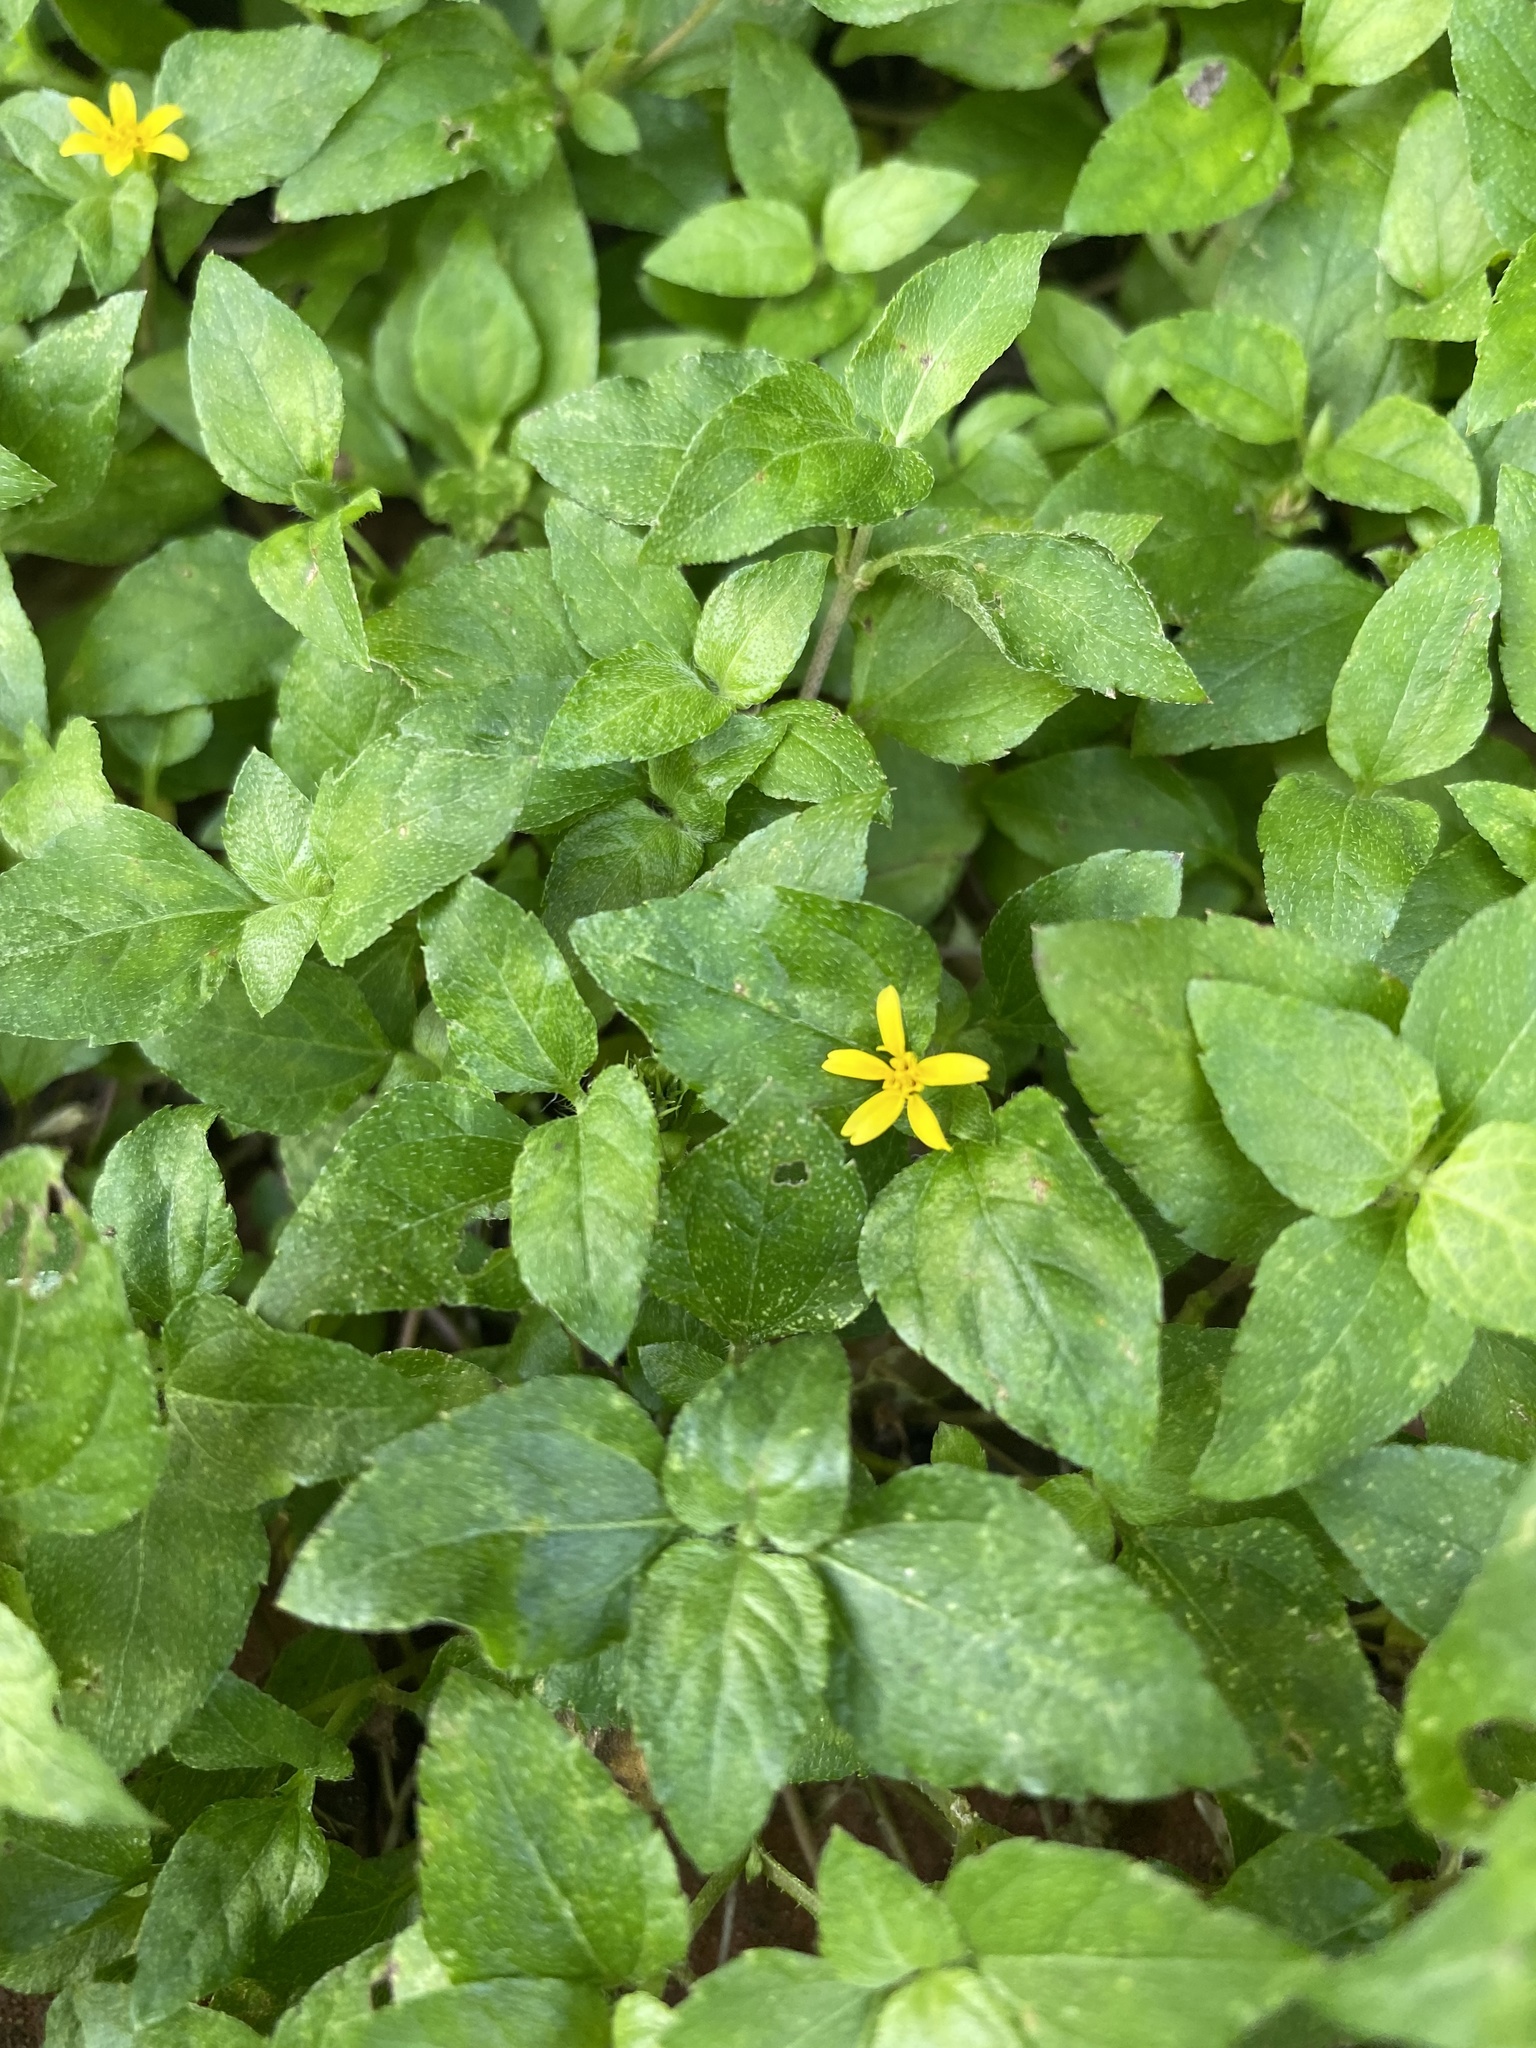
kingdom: Plantae
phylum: Tracheophyta
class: Magnoliopsida
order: Asterales
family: Asteraceae
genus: Calyptocarpus
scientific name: Calyptocarpus vialis
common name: Straggler daisy
